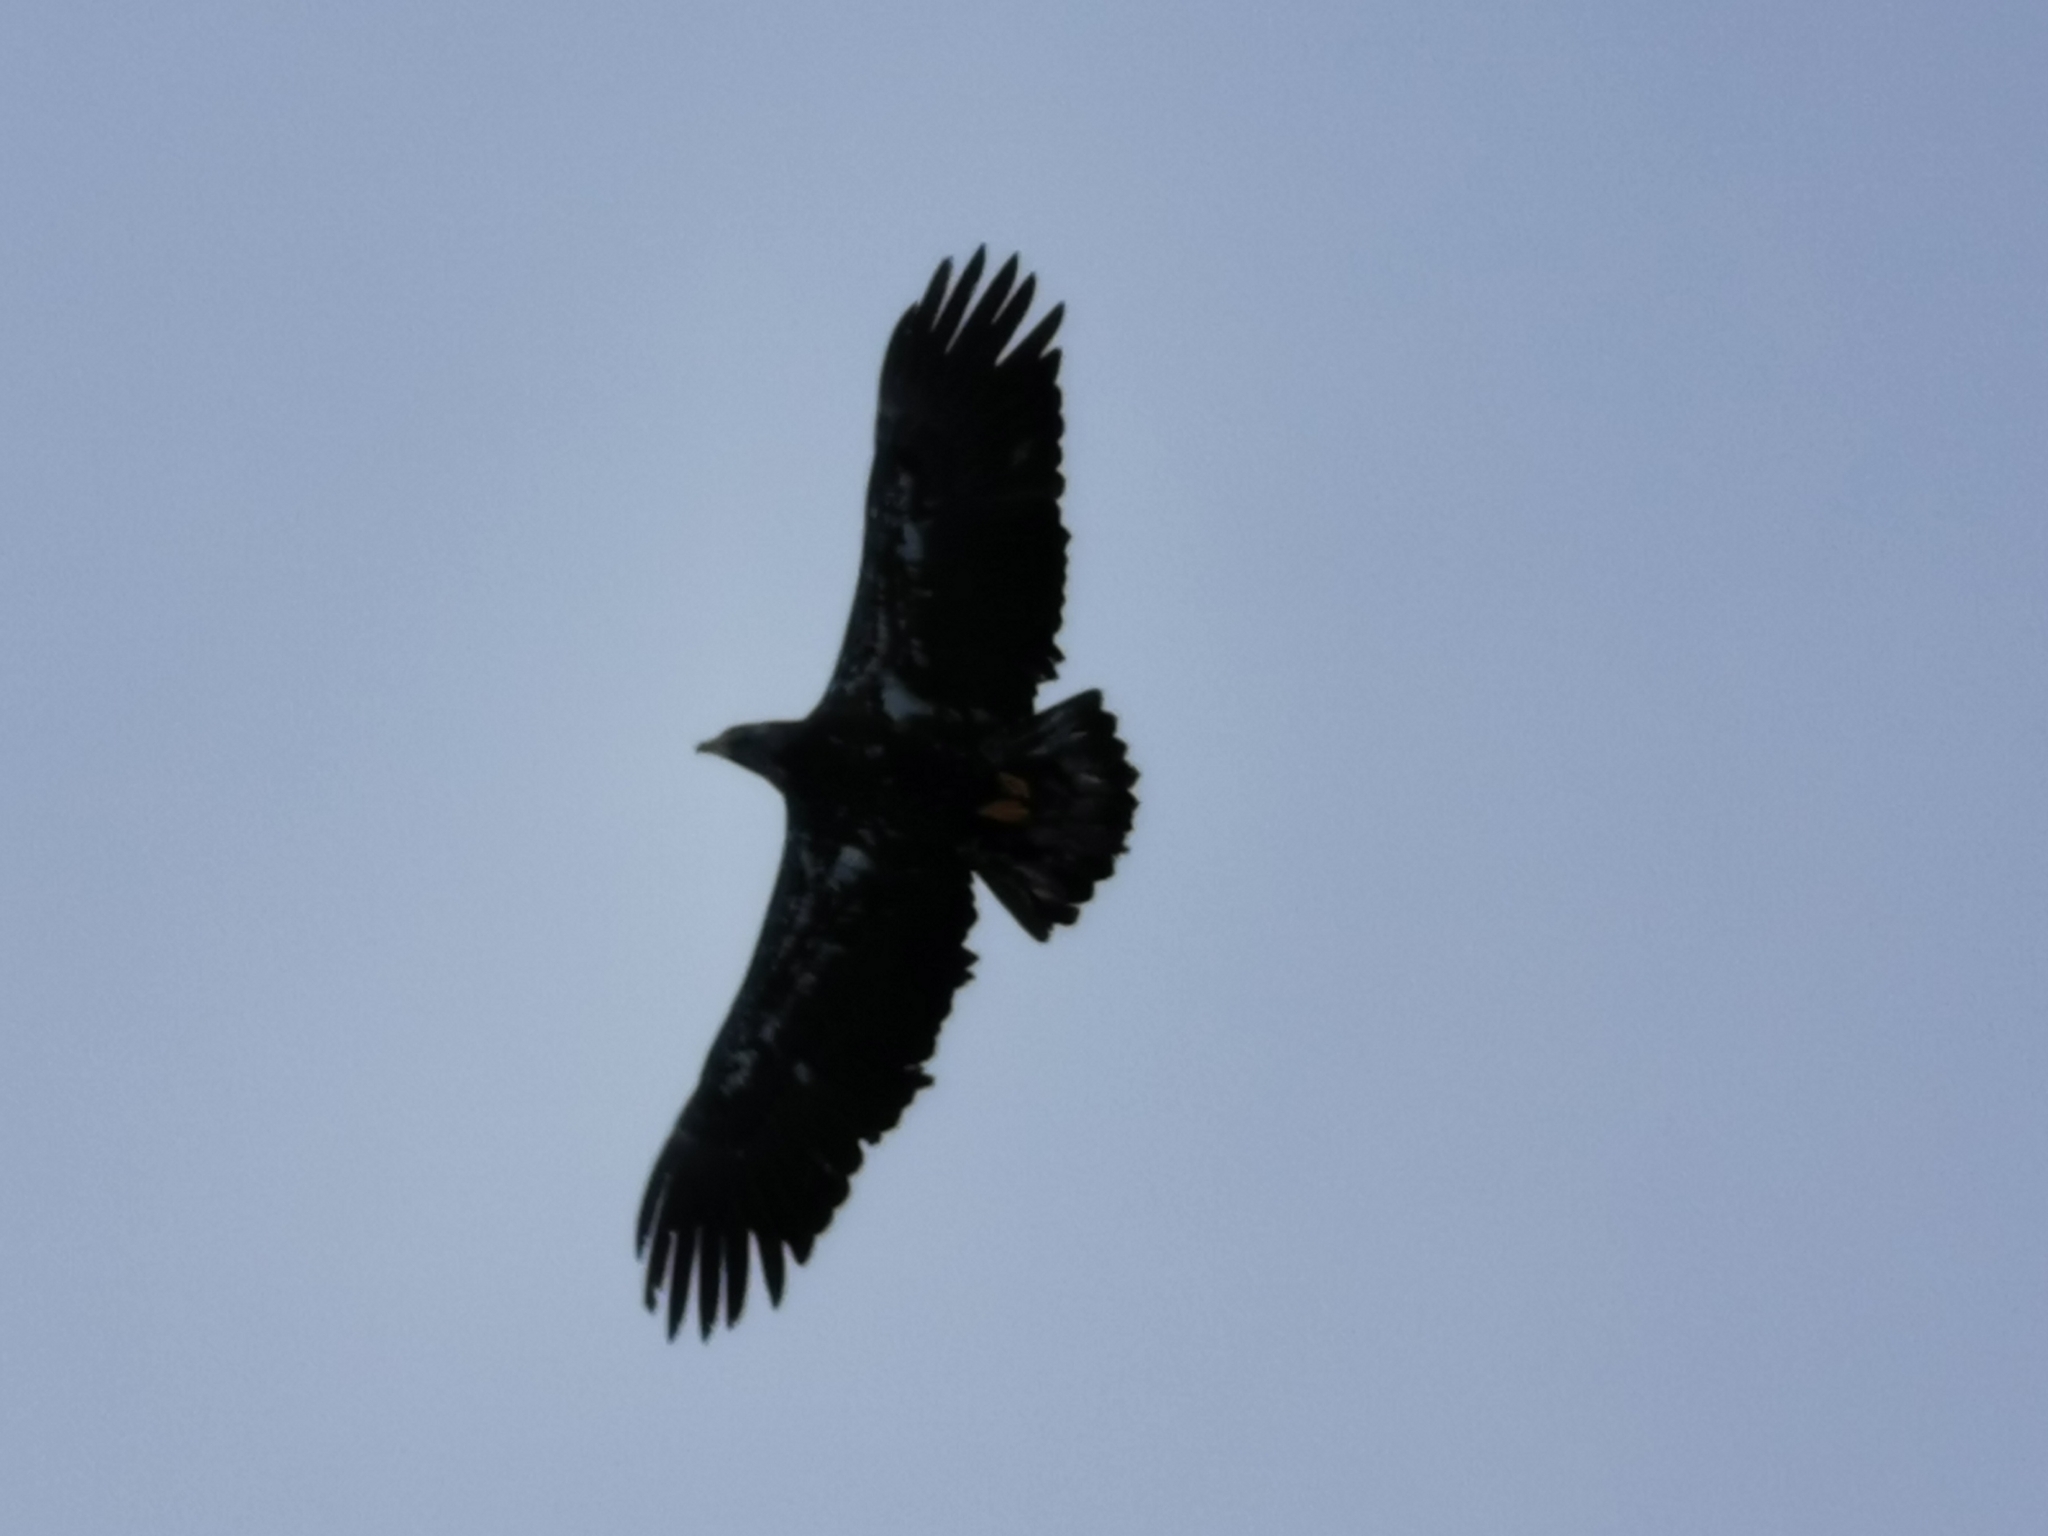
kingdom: Animalia
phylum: Chordata
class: Aves
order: Accipitriformes
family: Accipitridae
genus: Haliaeetus
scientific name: Haliaeetus leucocephalus
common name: Bald eagle
